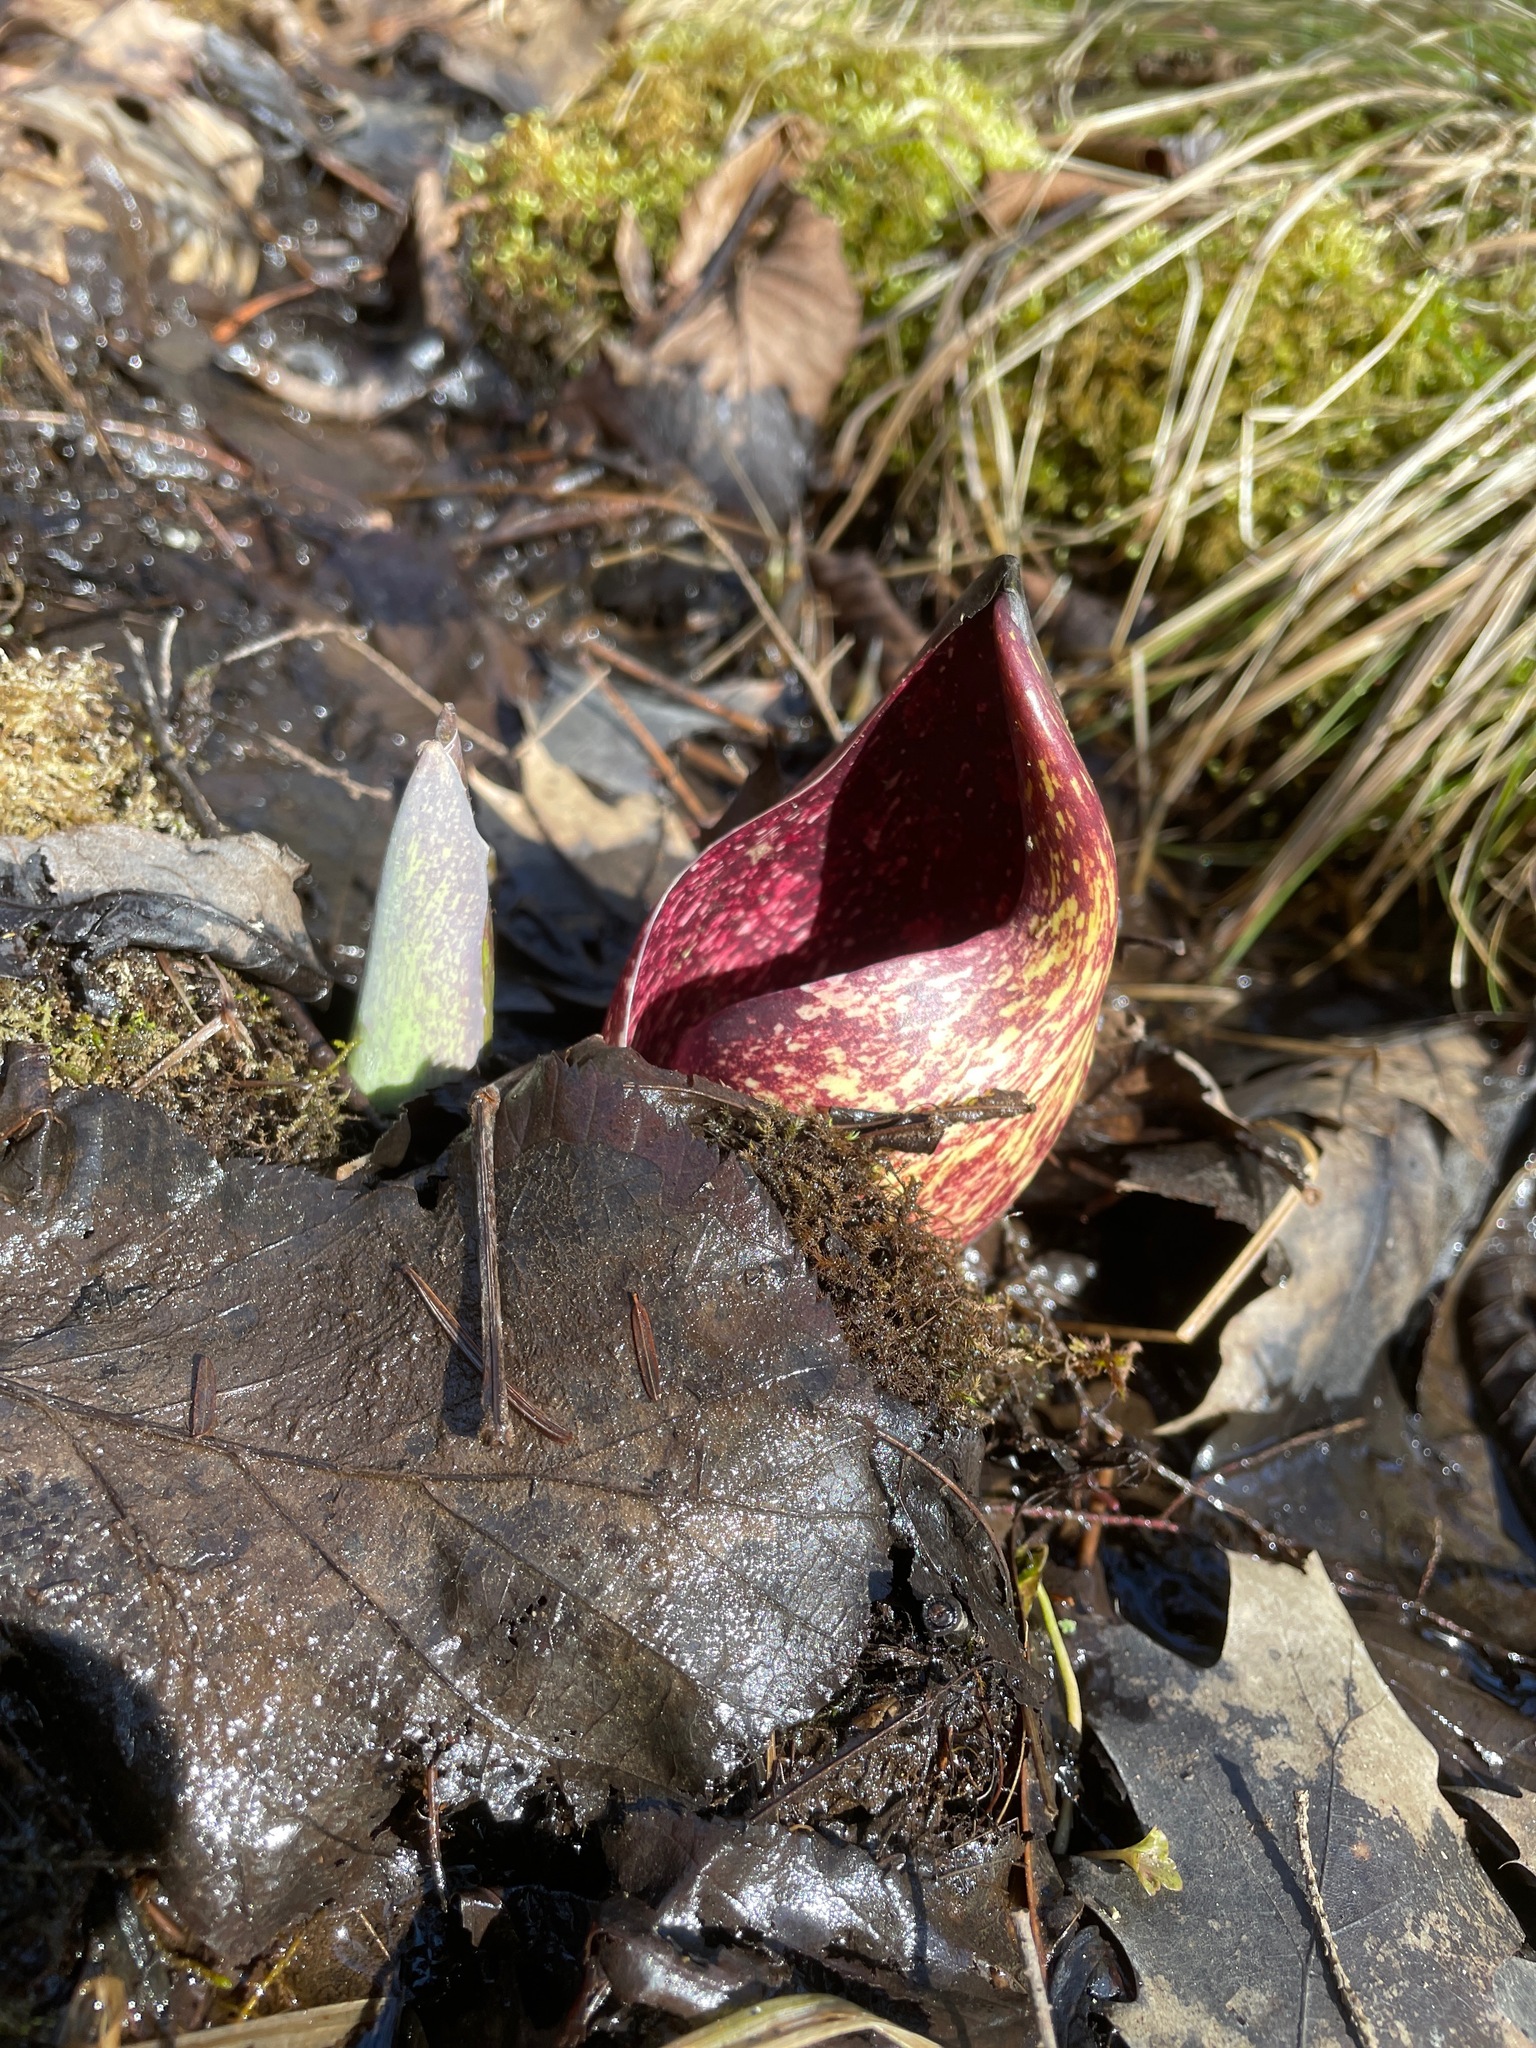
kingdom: Plantae
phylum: Tracheophyta
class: Liliopsida
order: Alismatales
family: Araceae
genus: Symplocarpus
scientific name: Symplocarpus foetidus
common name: Eastern skunk cabbage
